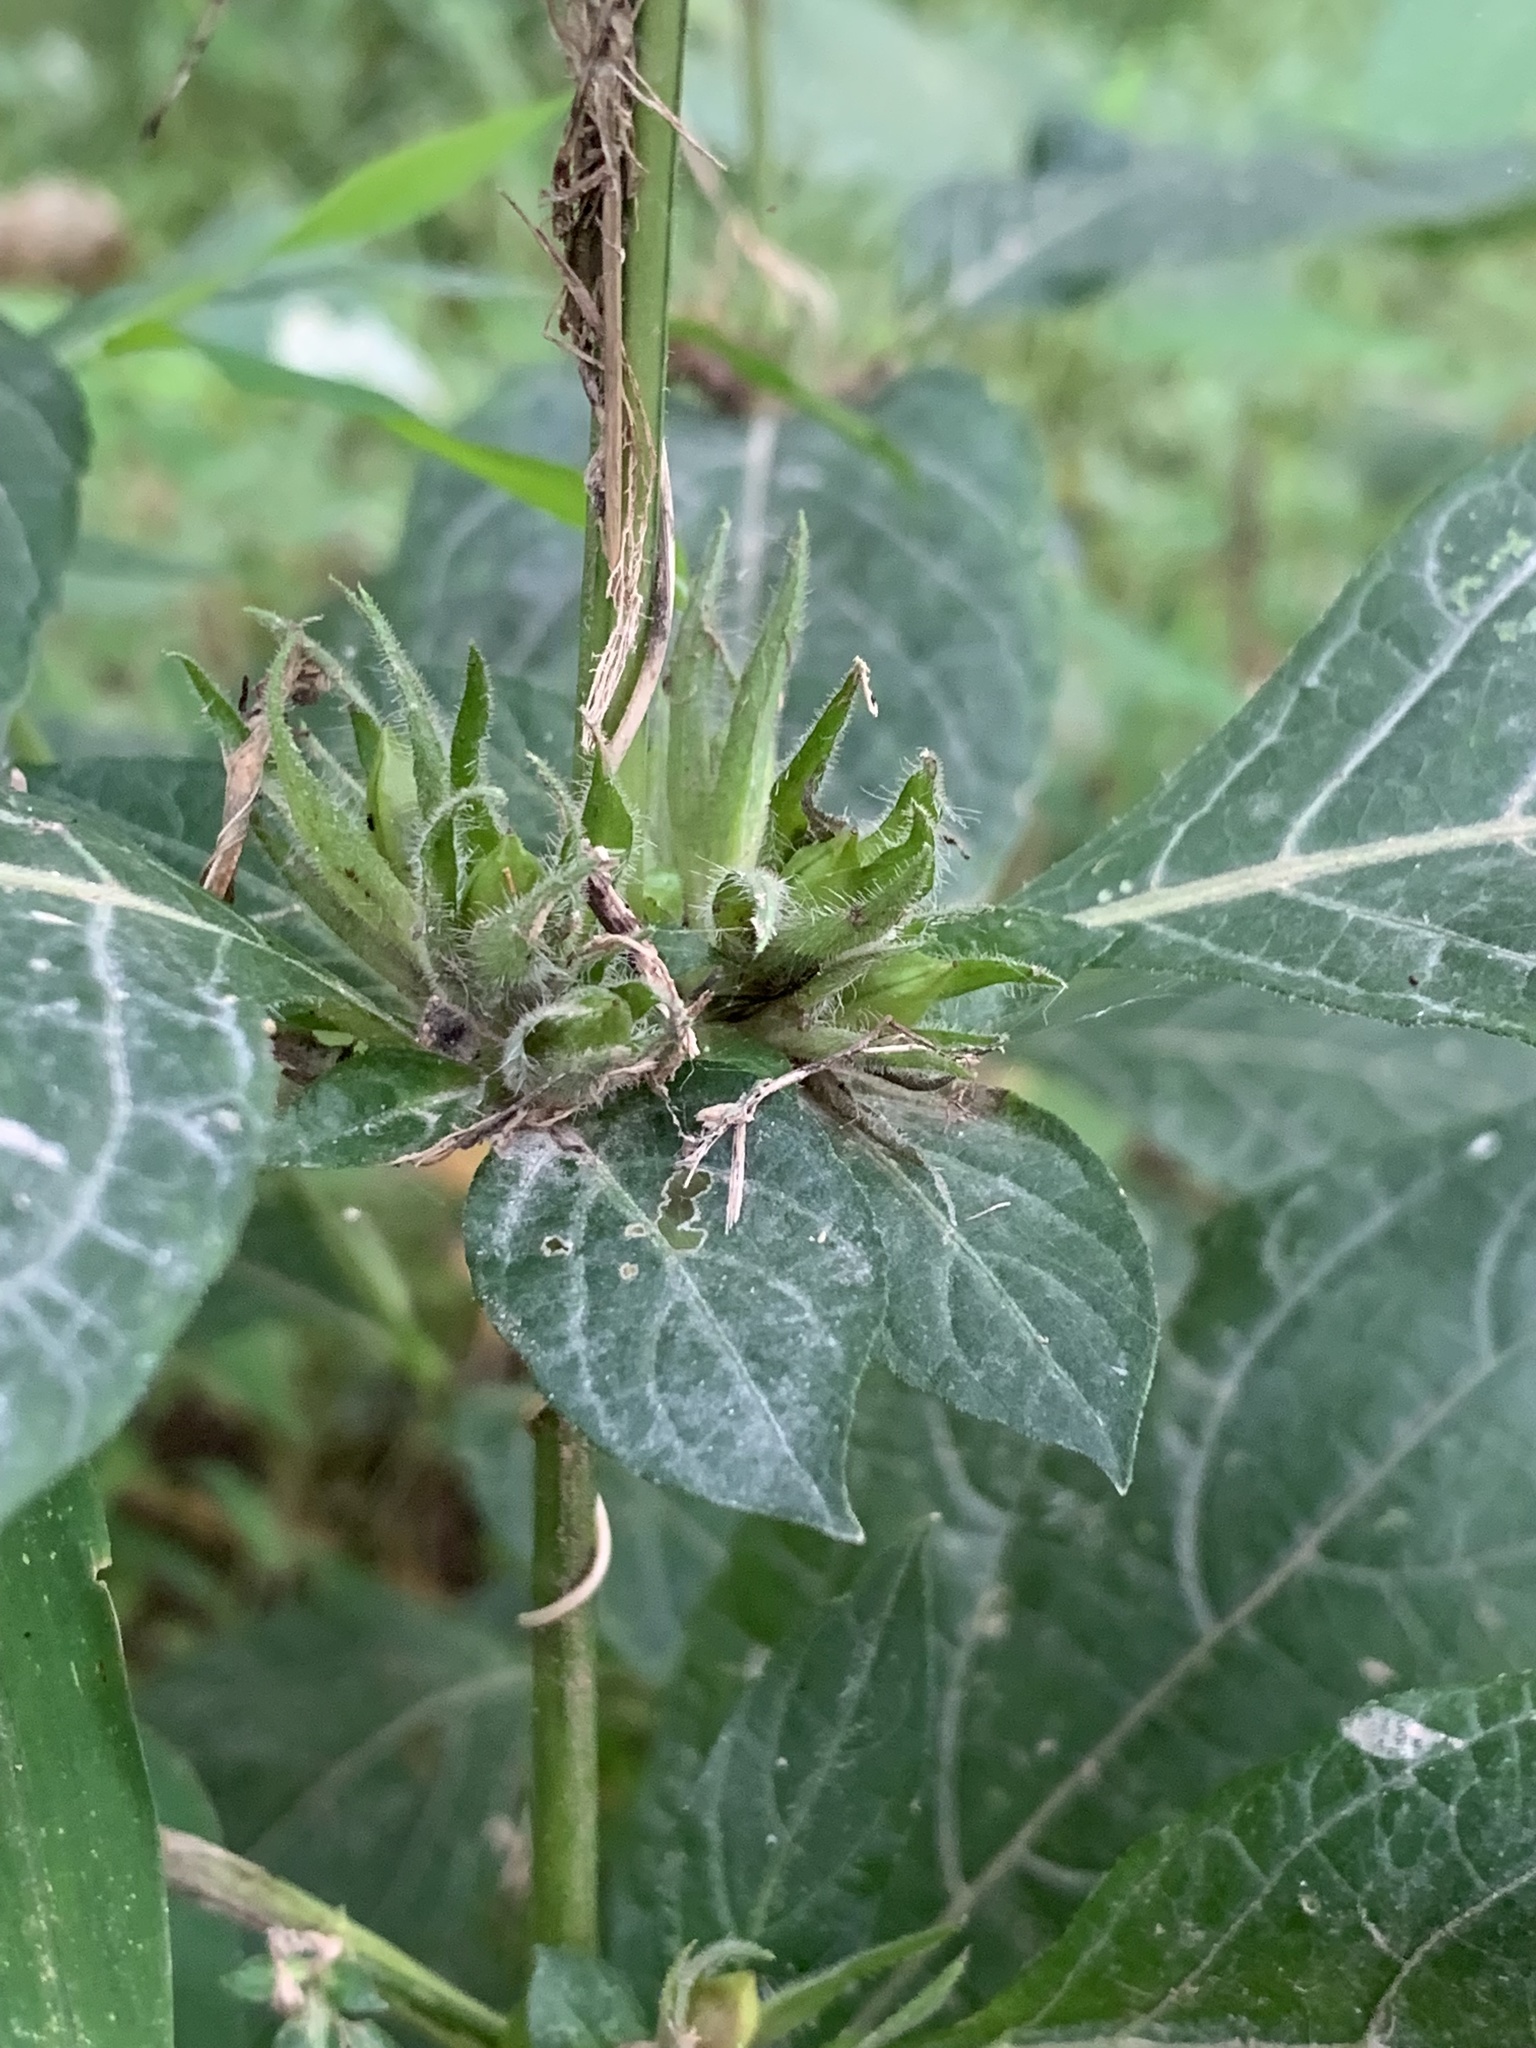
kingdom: Plantae
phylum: Tracheophyta
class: Magnoliopsida
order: Lamiales
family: Acanthaceae
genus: Ruellia
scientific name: Ruellia strepens
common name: Limestone wild petunia
